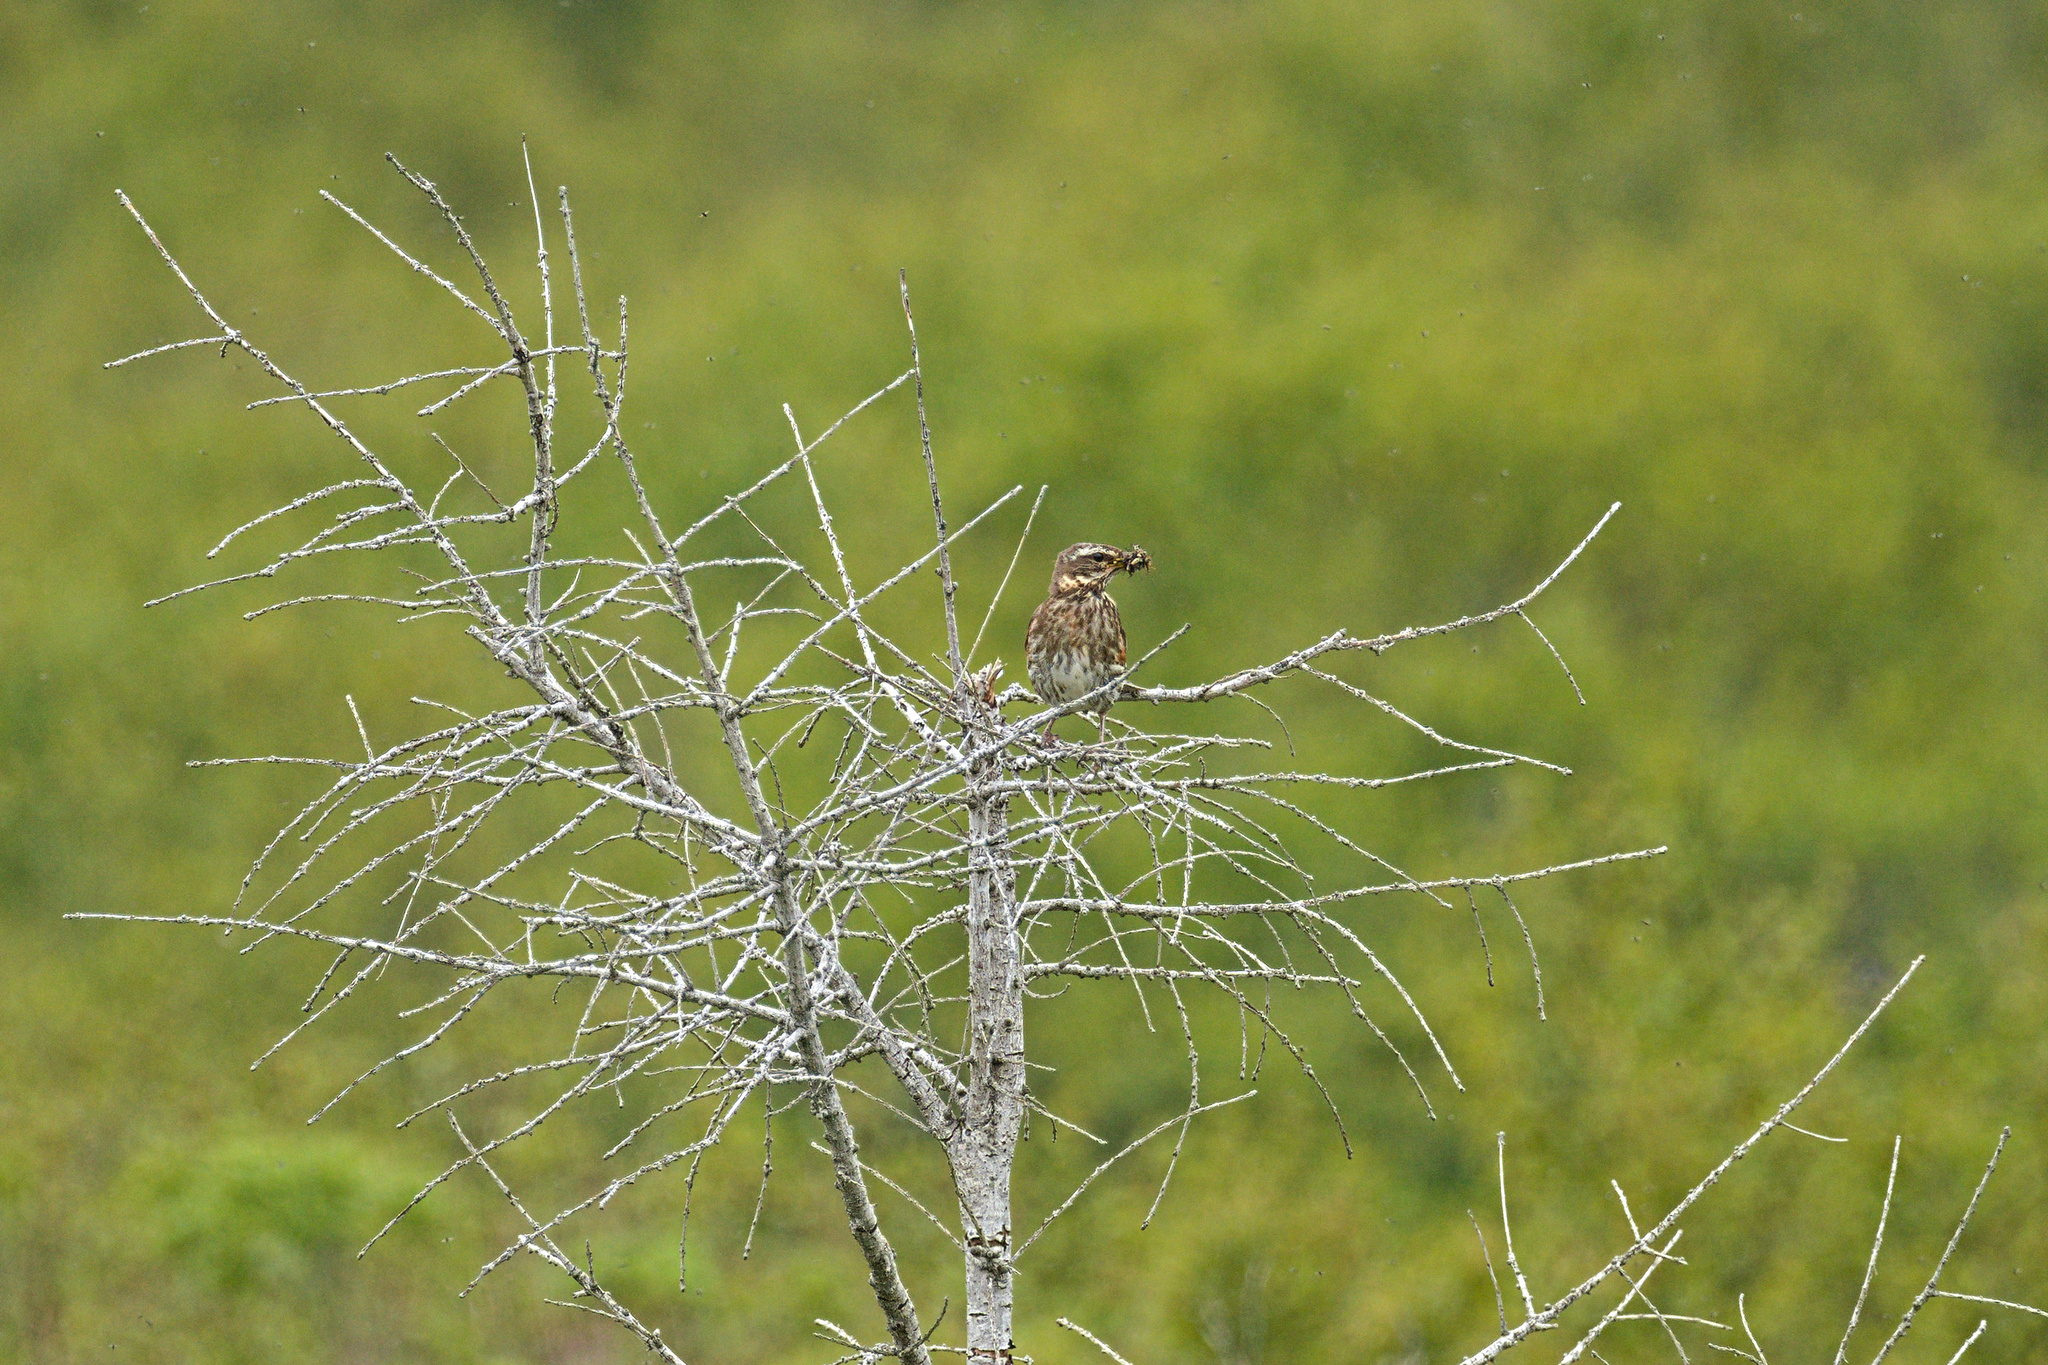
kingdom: Animalia
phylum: Chordata
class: Aves
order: Passeriformes
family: Turdidae
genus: Turdus
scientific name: Turdus iliacus
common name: Redwing
